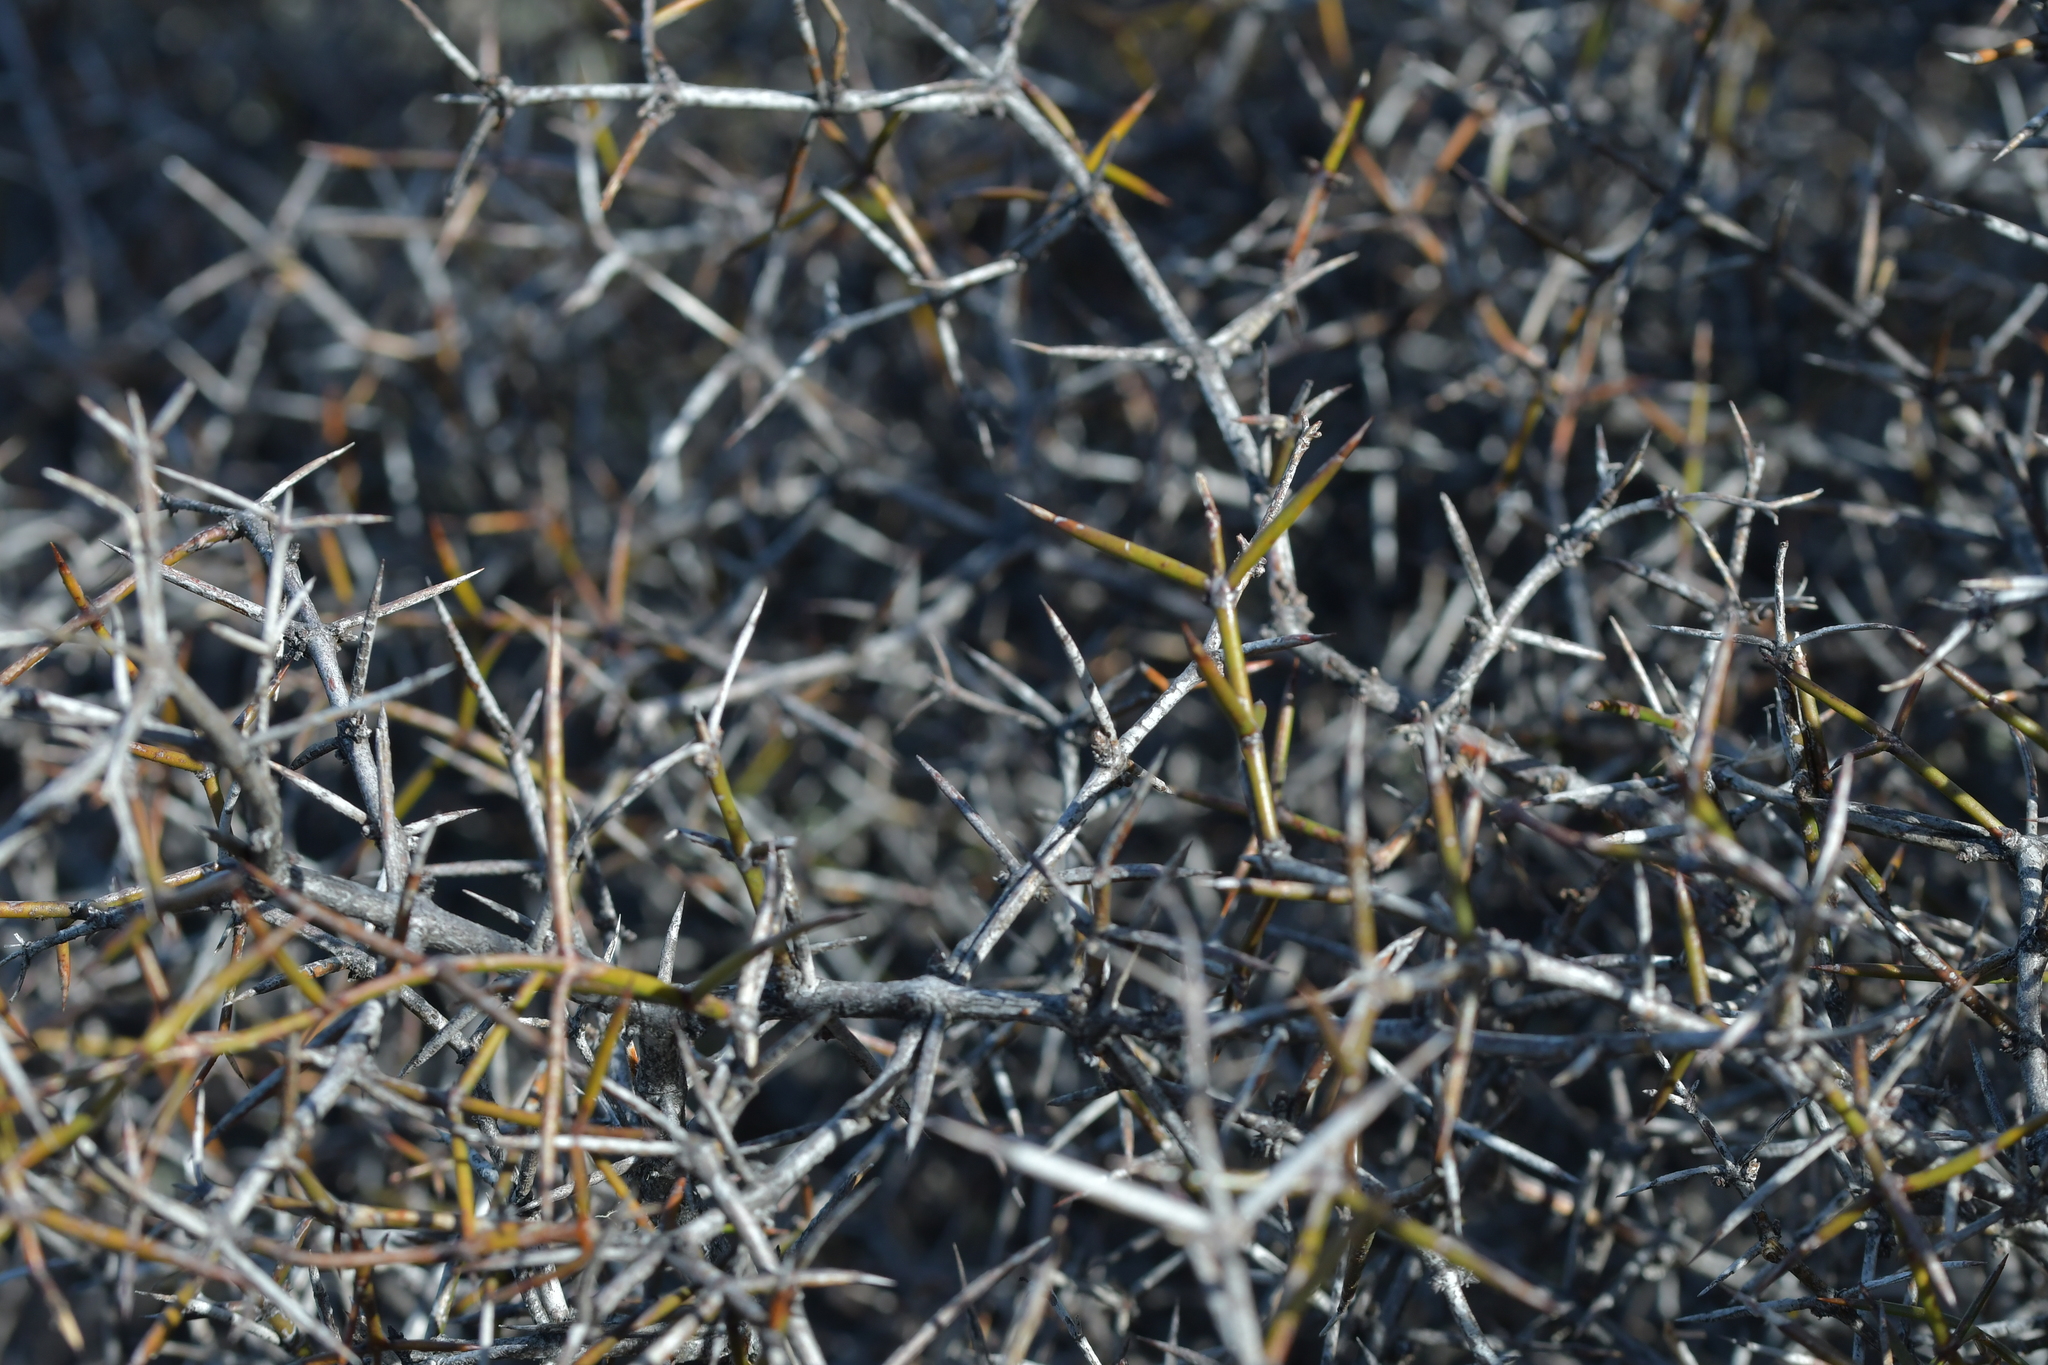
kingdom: Plantae
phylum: Tracheophyta
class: Magnoliopsida
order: Rosales
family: Rhamnaceae
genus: Discaria
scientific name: Discaria toumatou
